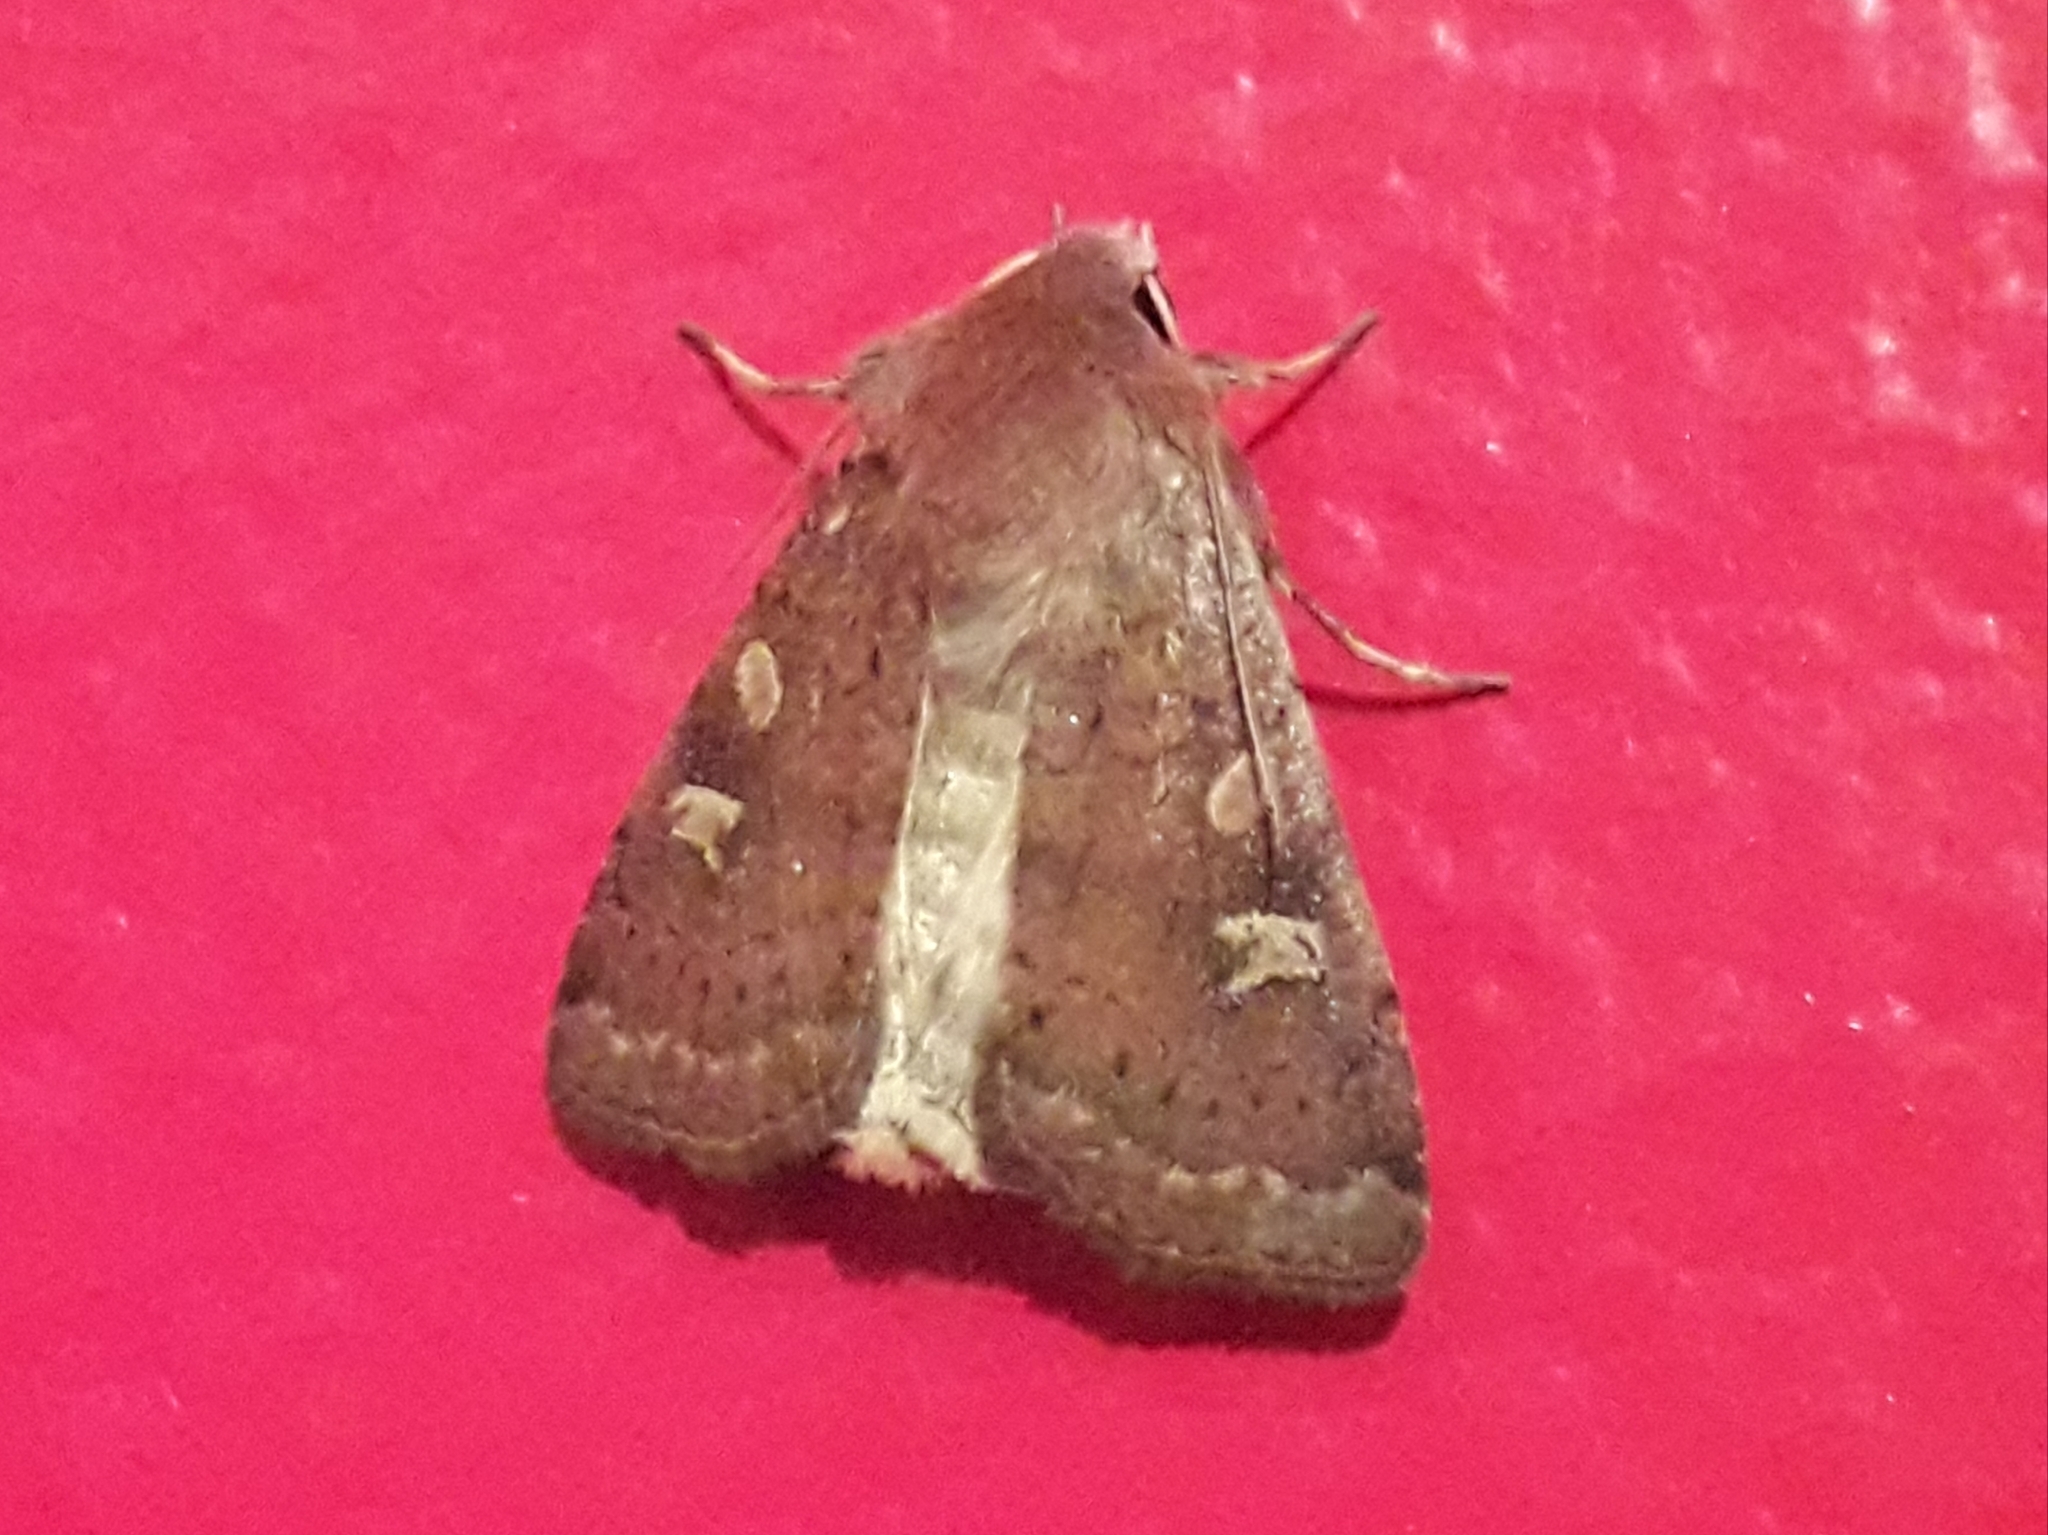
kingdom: Animalia
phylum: Arthropoda
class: Insecta
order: Lepidoptera
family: Noctuidae
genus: Xestia
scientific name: Xestia xanthographa
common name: Square-spot rustic
